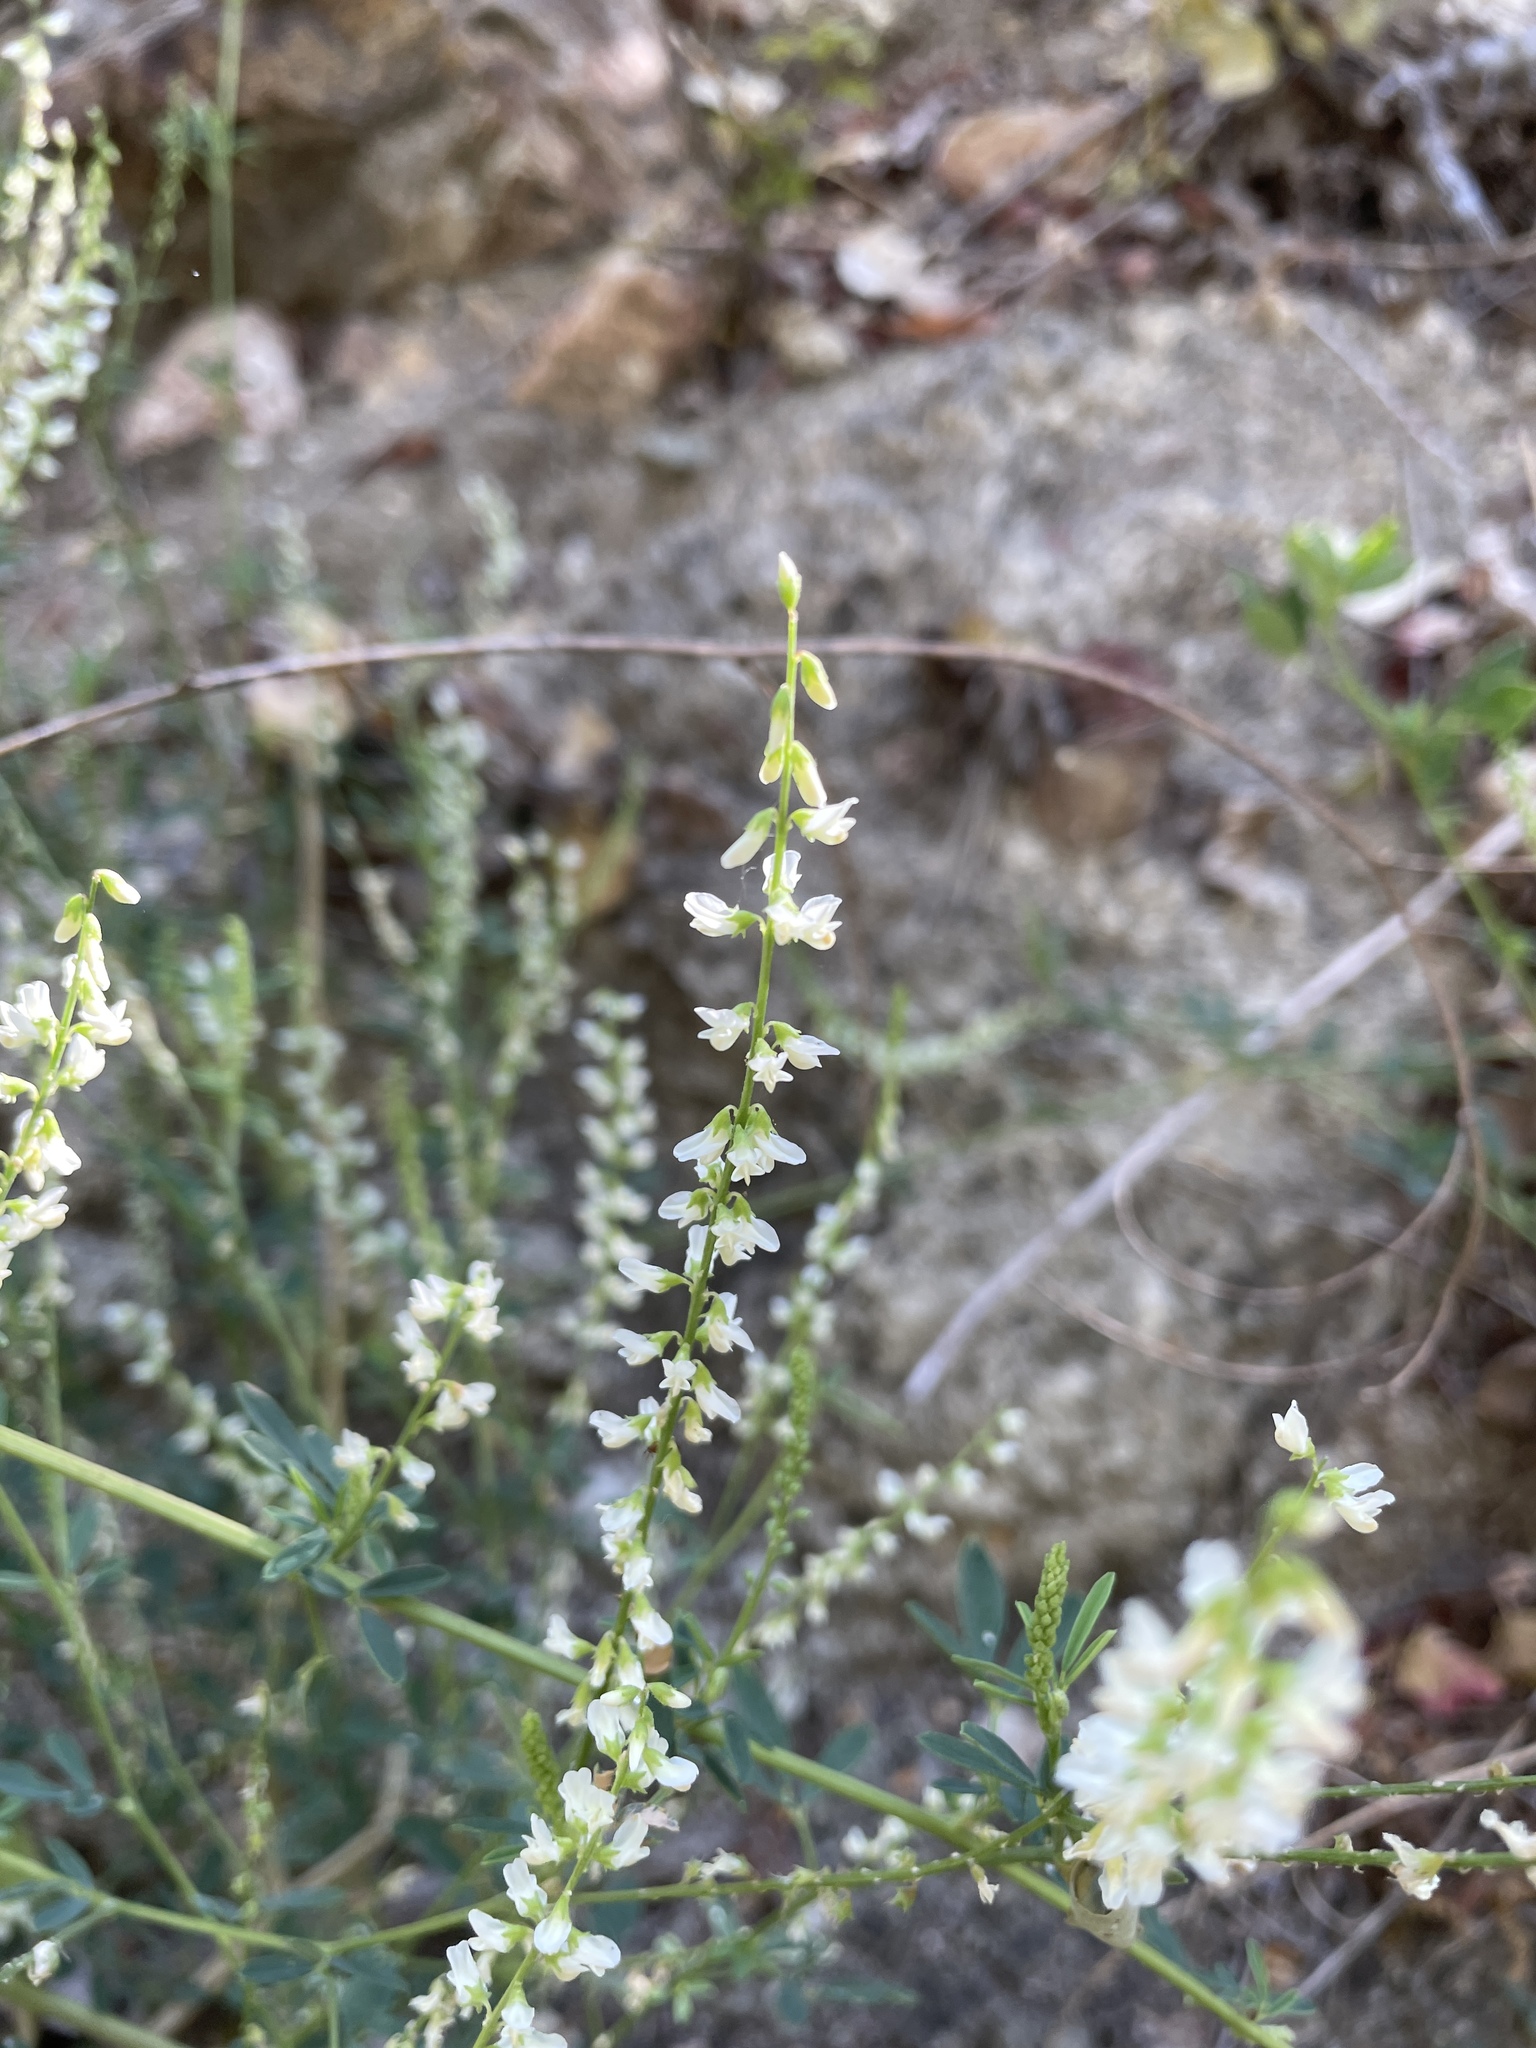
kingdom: Plantae
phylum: Tracheophyta
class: Magnoliopsida
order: Fabales
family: Fabaceae
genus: Melilotus
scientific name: Melilotus albus
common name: White melilot
